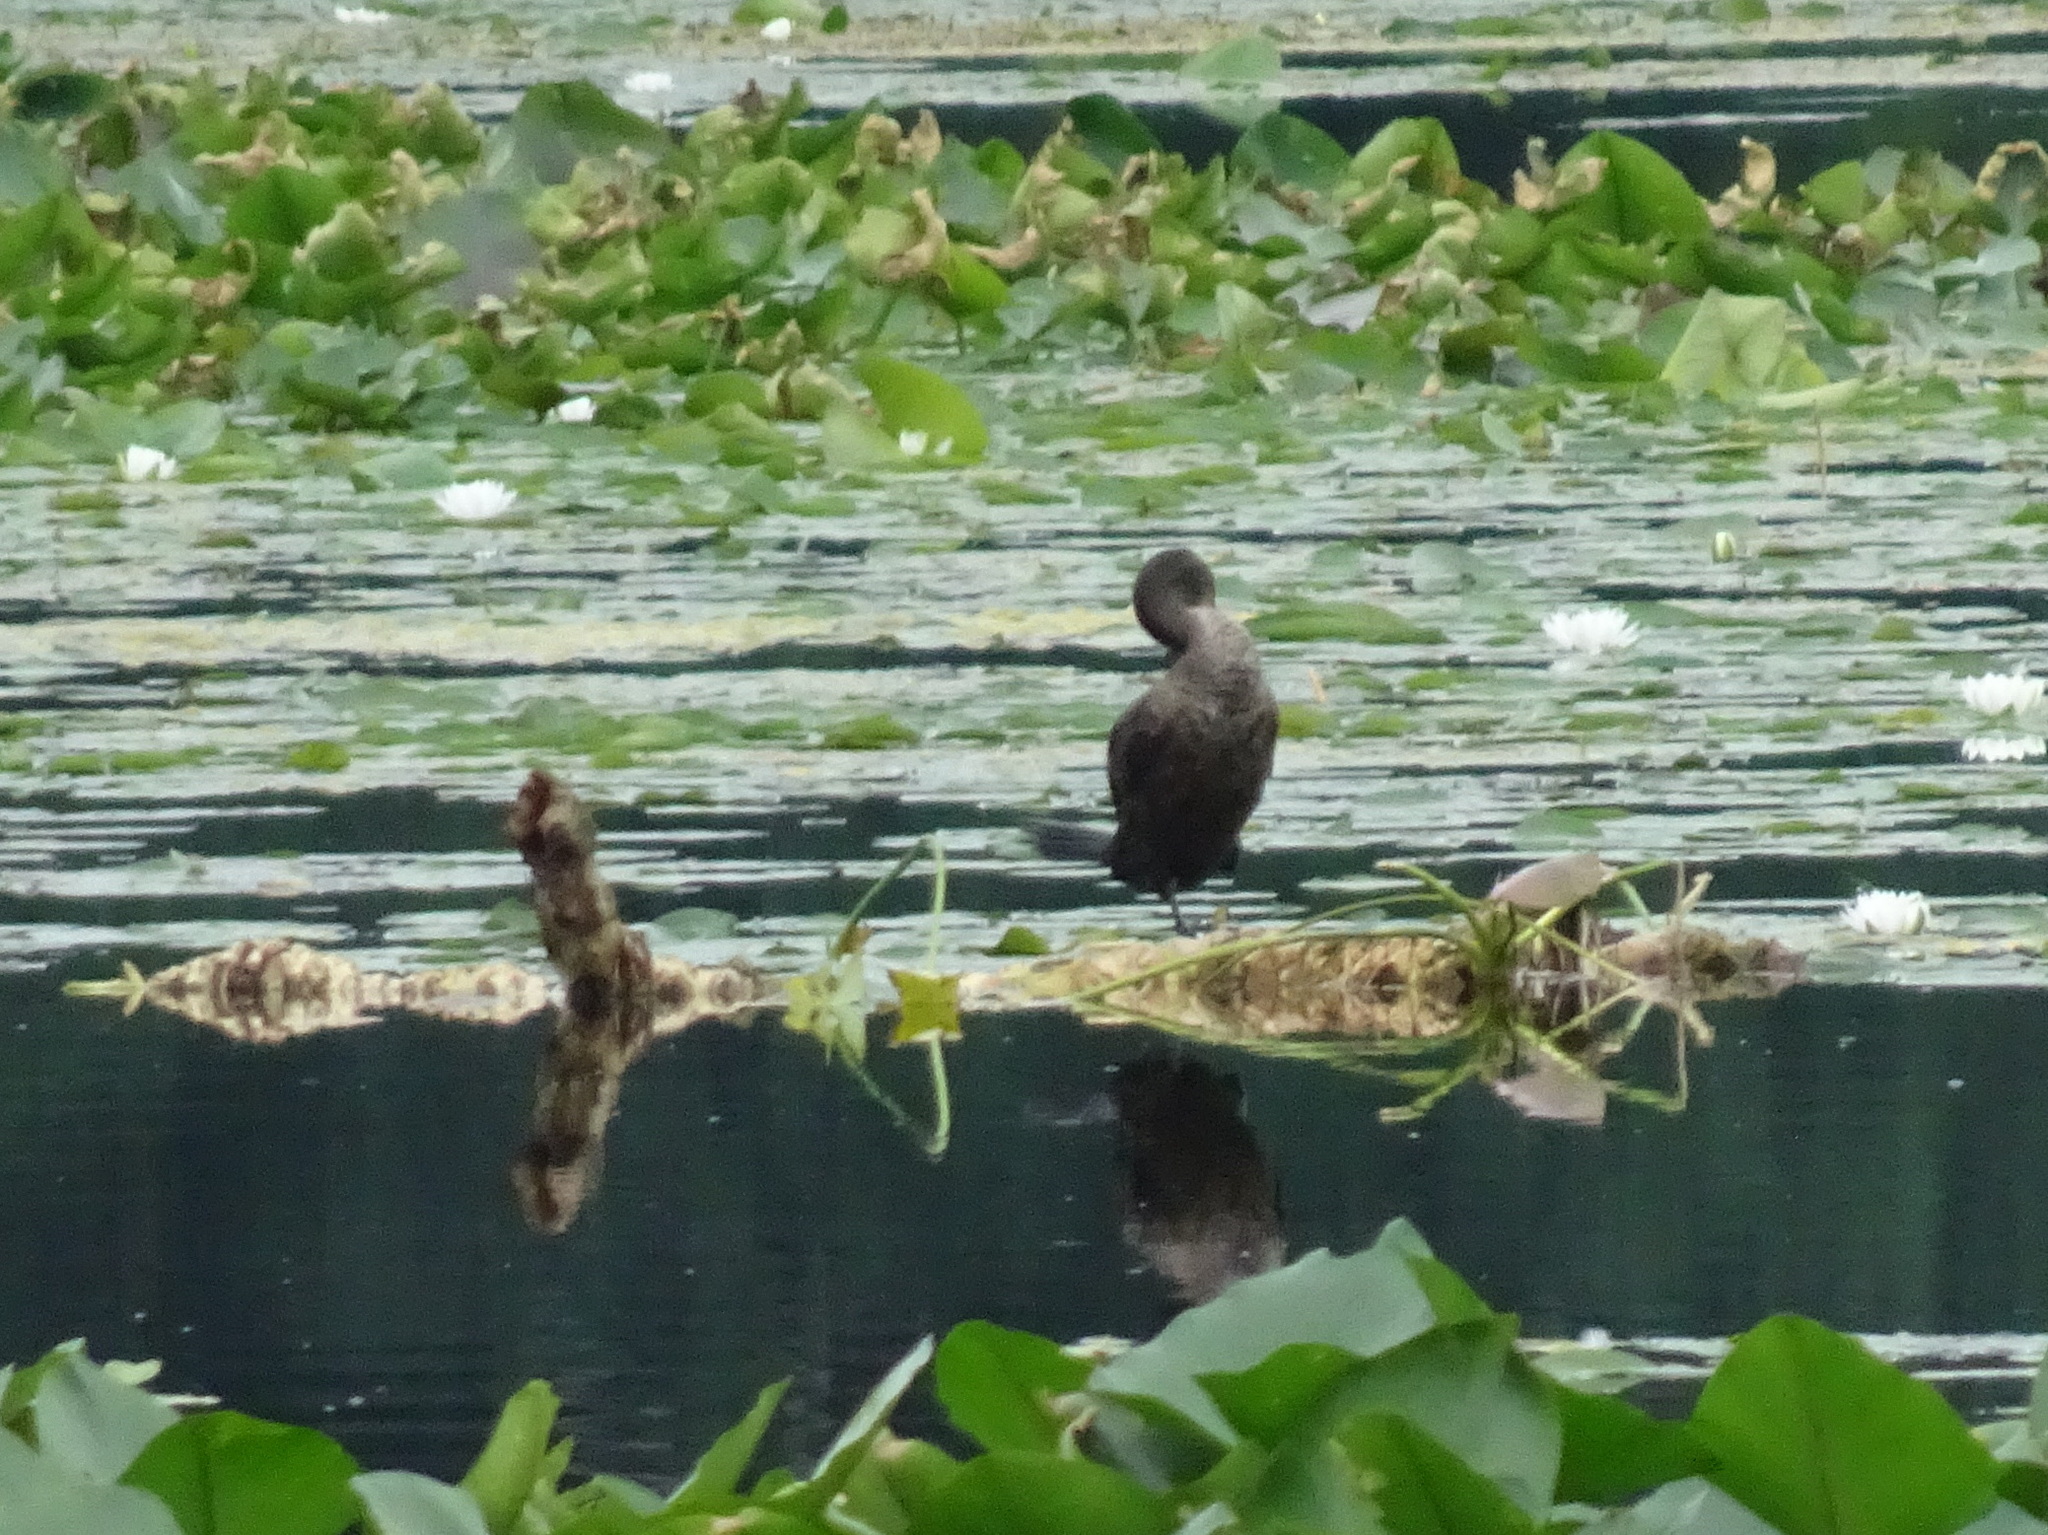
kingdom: Animalia
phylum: Chordata
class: Aves
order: Suliformes
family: Phalacrocoracidae
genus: Phalacrocorax
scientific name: Phalacrocorax auritus
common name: Double-crested cormorant
